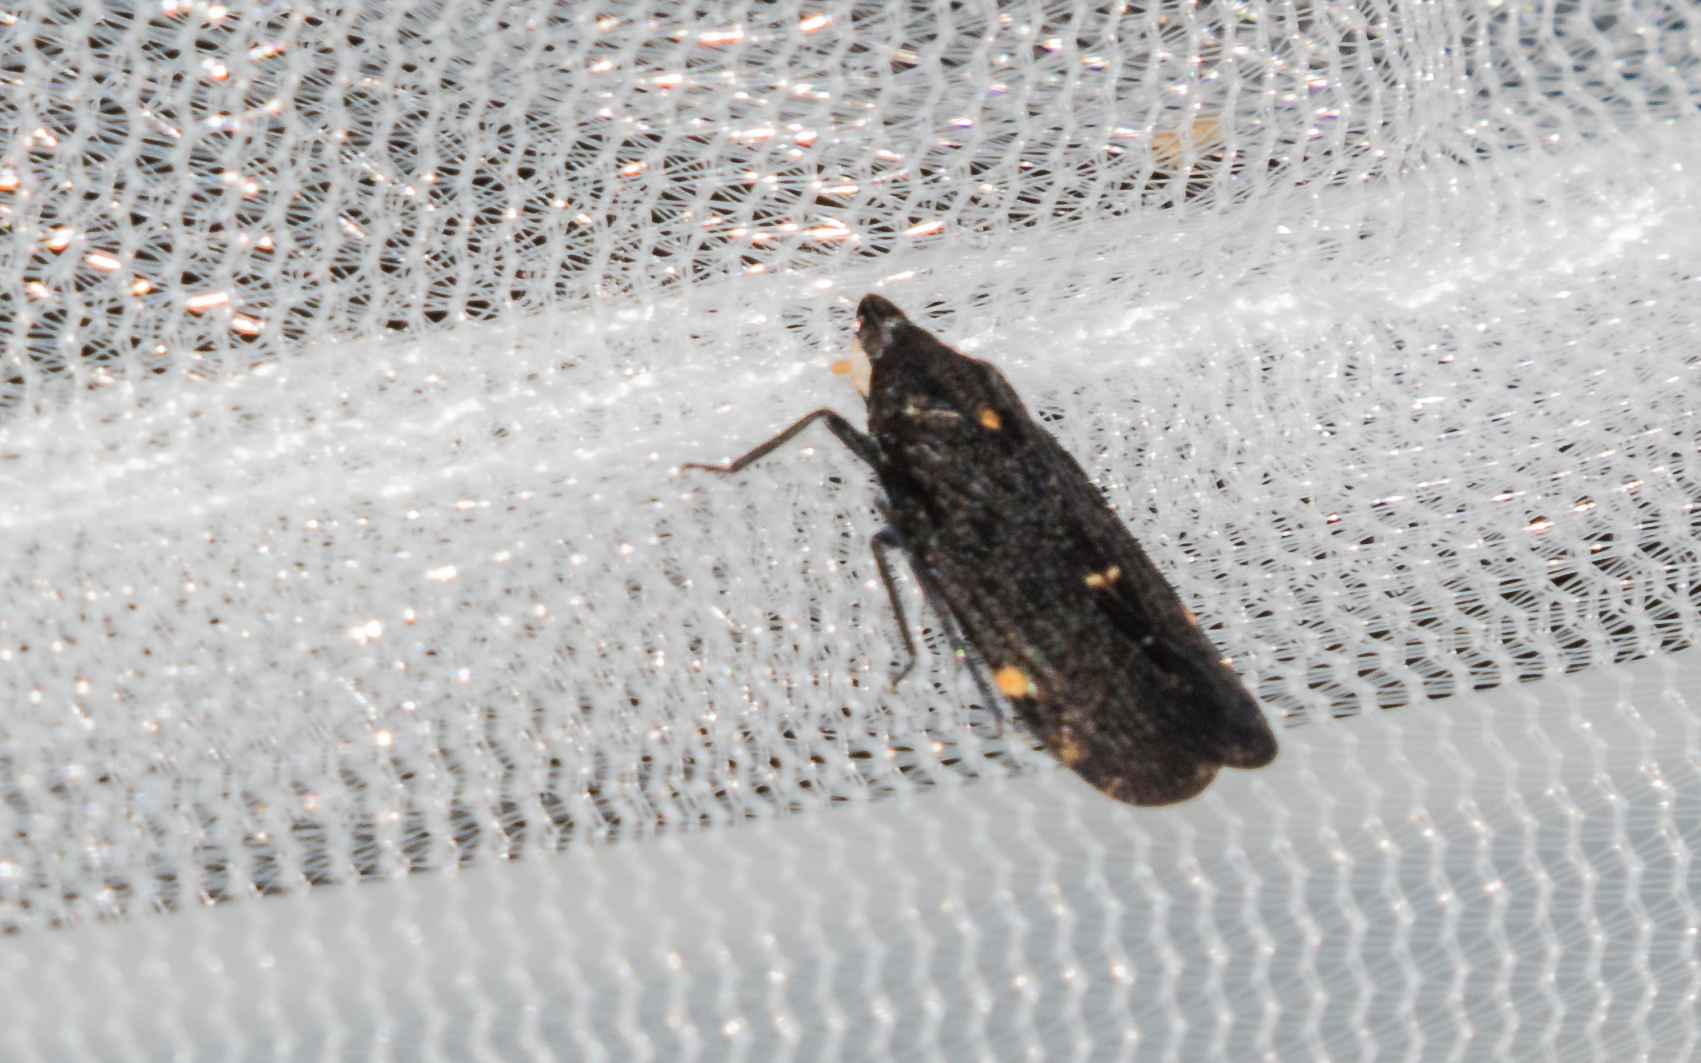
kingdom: Animalia
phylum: Arthropoda
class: Insecta
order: Hemiptera
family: Achilidae
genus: Cixidia
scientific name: Cixidia opaca
